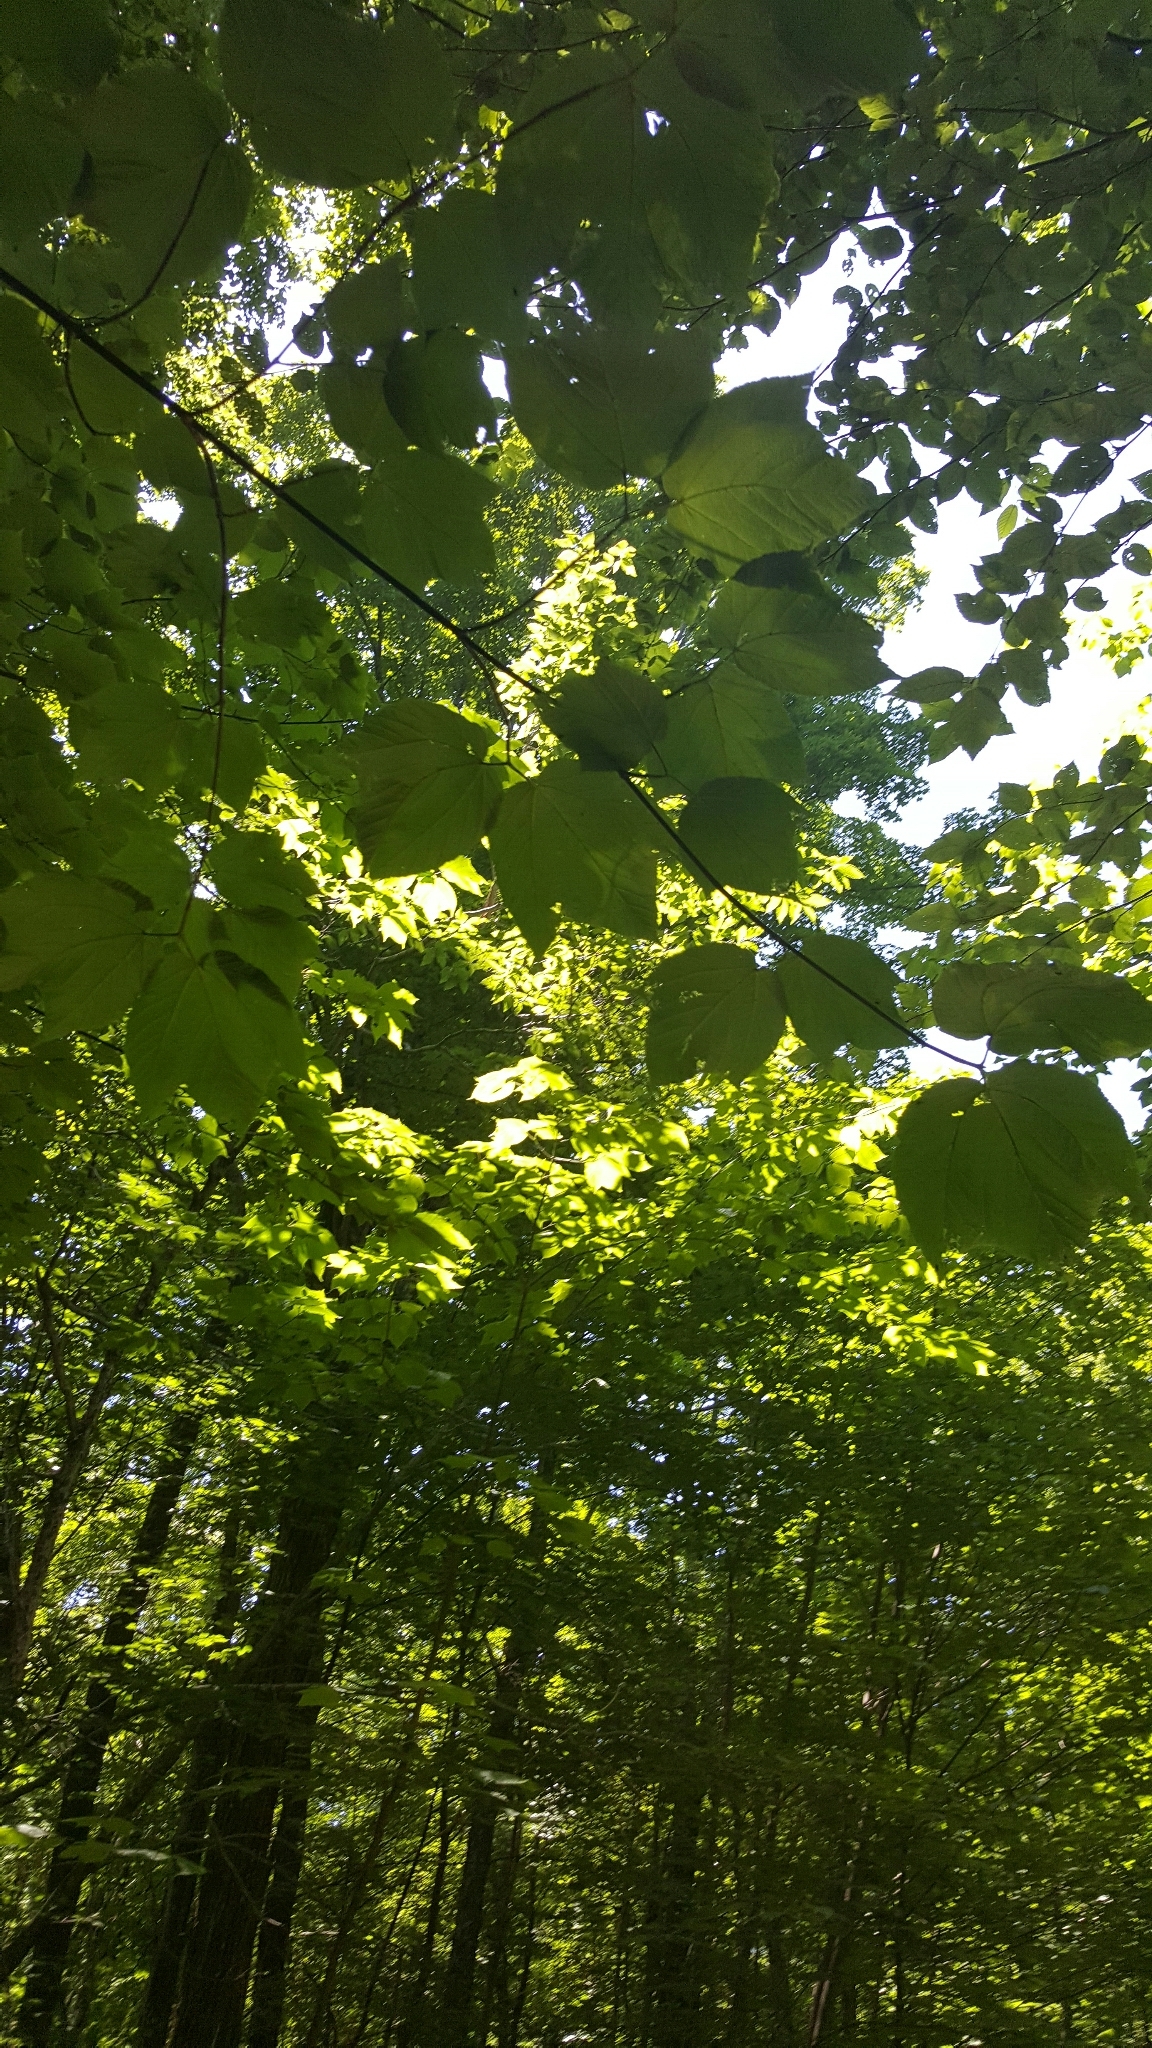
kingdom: Plantae
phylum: Tracheophyta
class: Magnoliopsida
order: Sapindales
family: Sapindaceae
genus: Acer
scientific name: Acer pensylvanicum
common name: Moosewood
